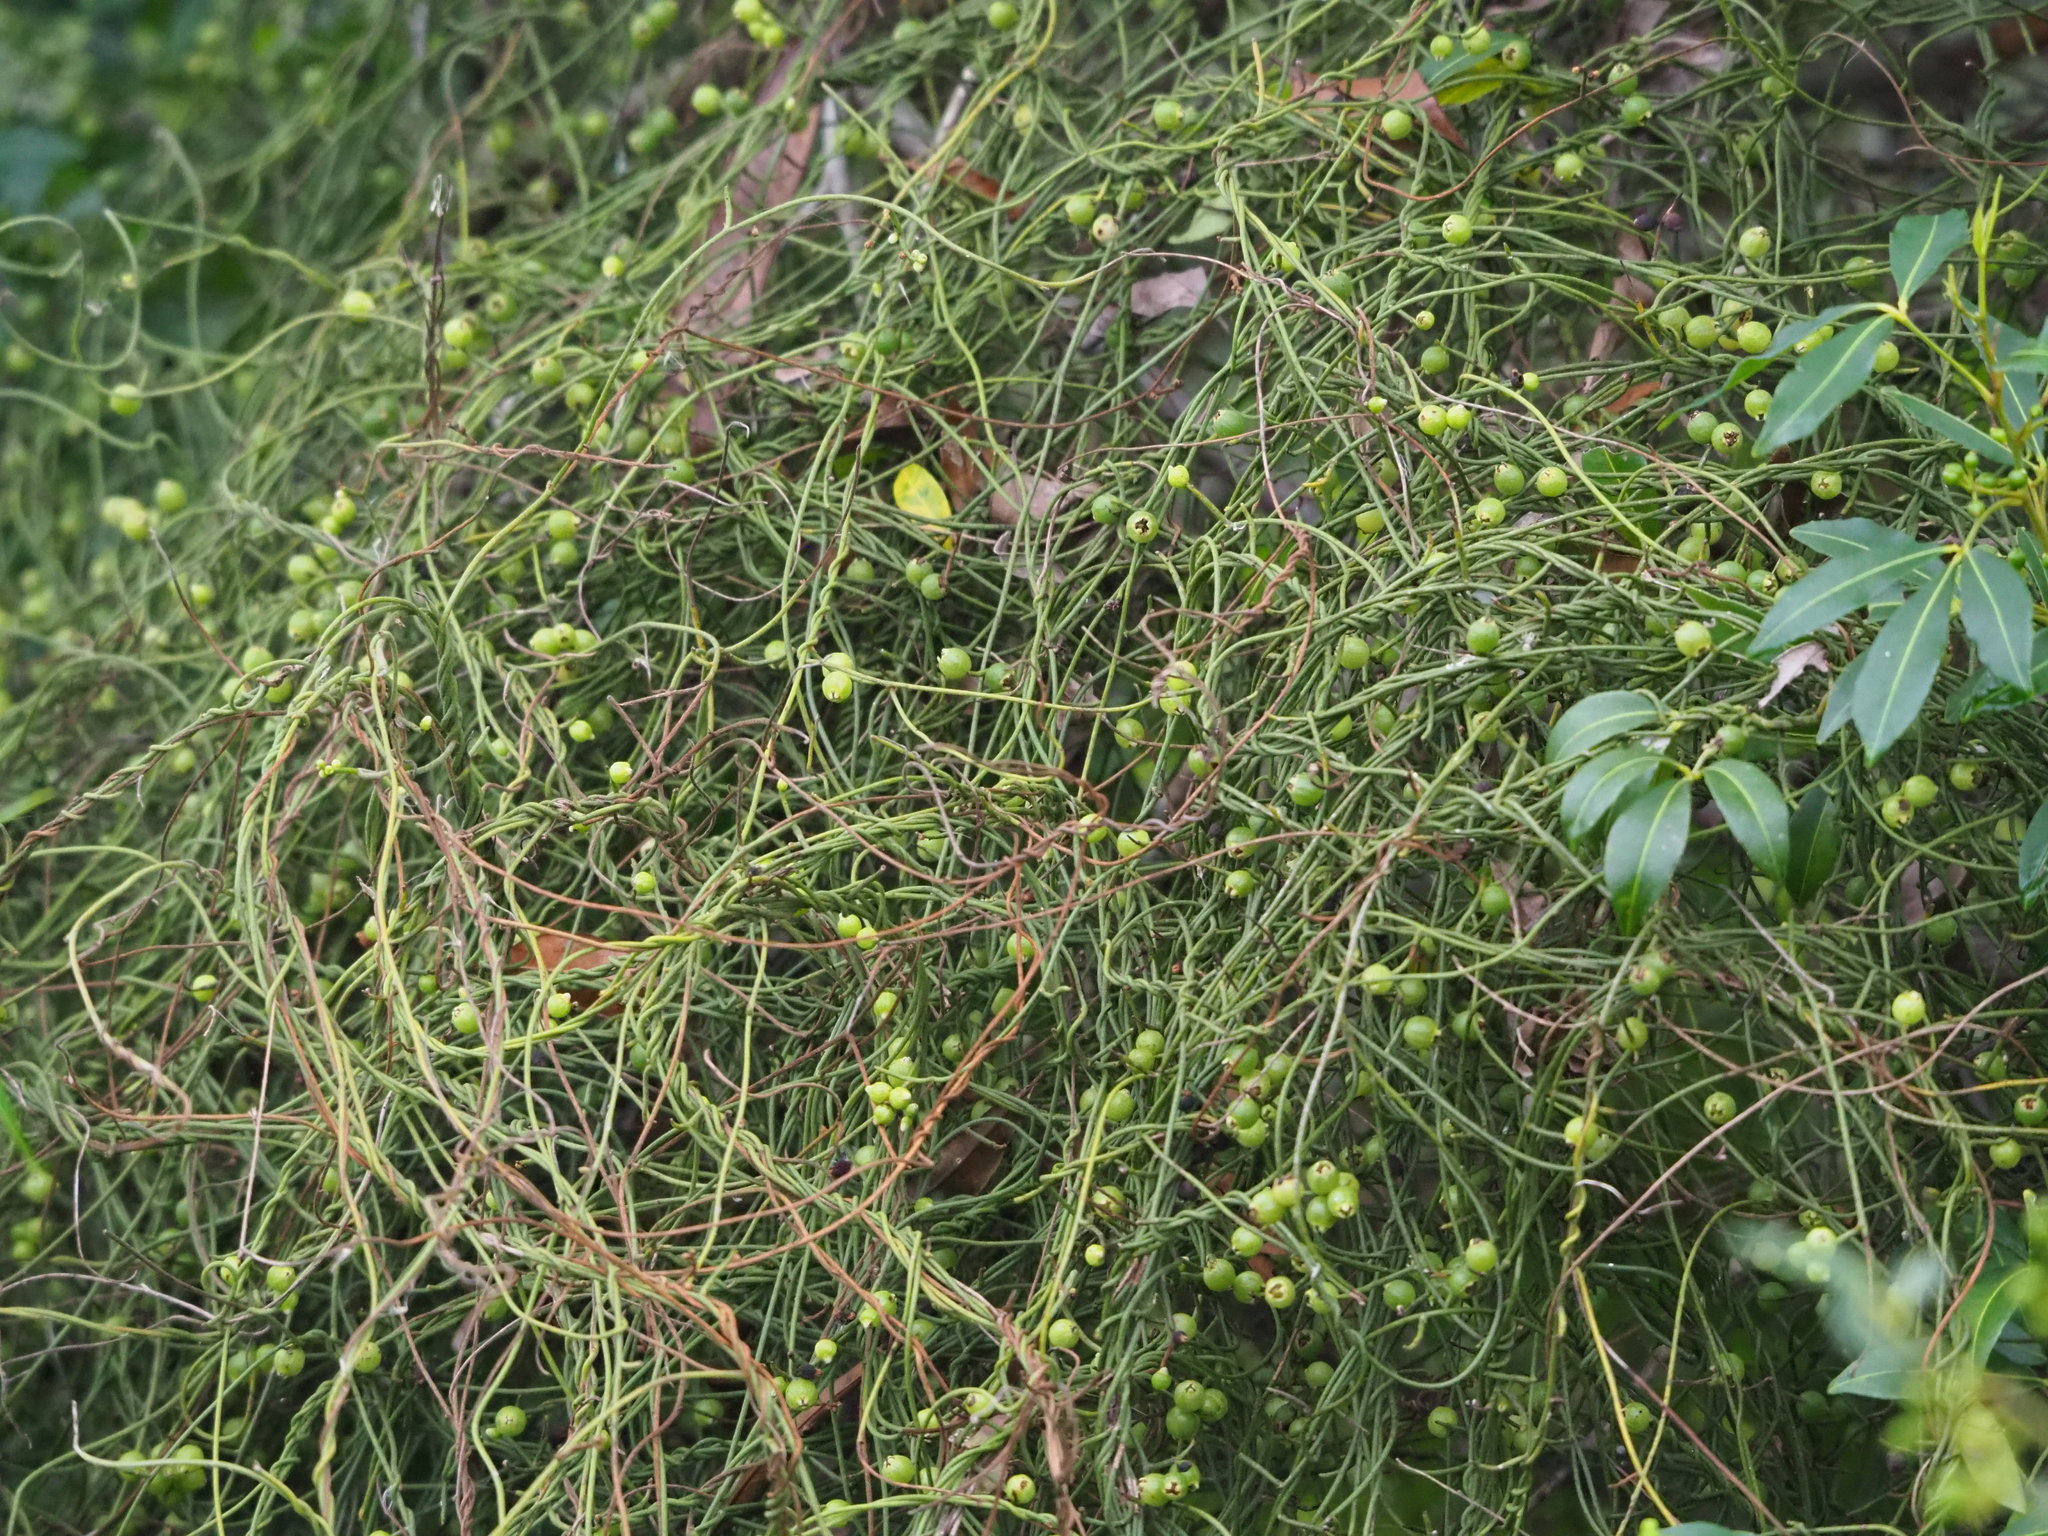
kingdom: Plantae
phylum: Tracheophyta
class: Magnoliopsida
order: Laurales
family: Lauraceae
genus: Cassytha
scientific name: Cassytha filiformis
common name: Dodder-laurel
